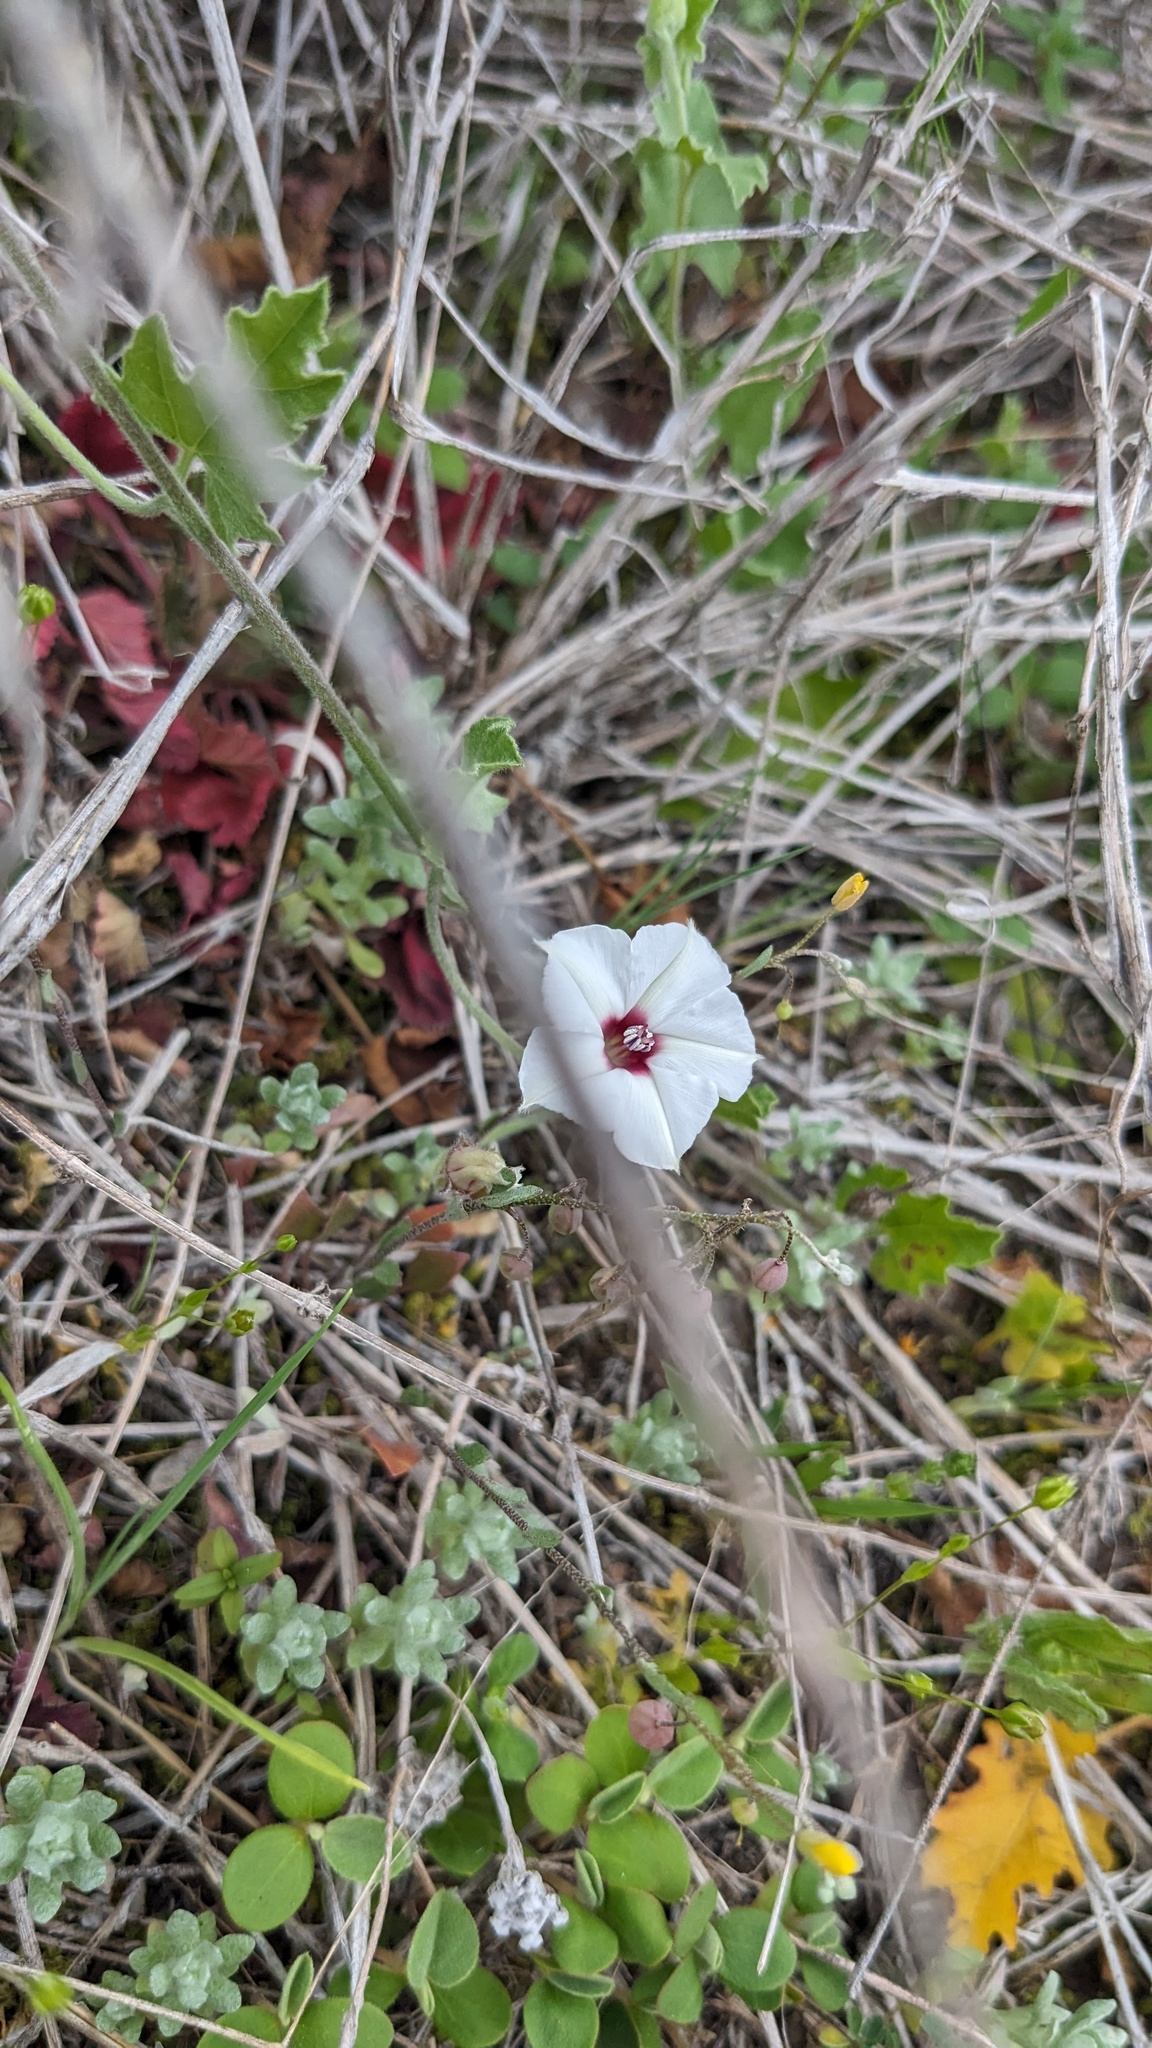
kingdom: Plantae
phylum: Tracheophyta
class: Magnoliopsida
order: Solanales
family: Convolvulaceae
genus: Convolvulus
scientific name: Convolvulus equitans
